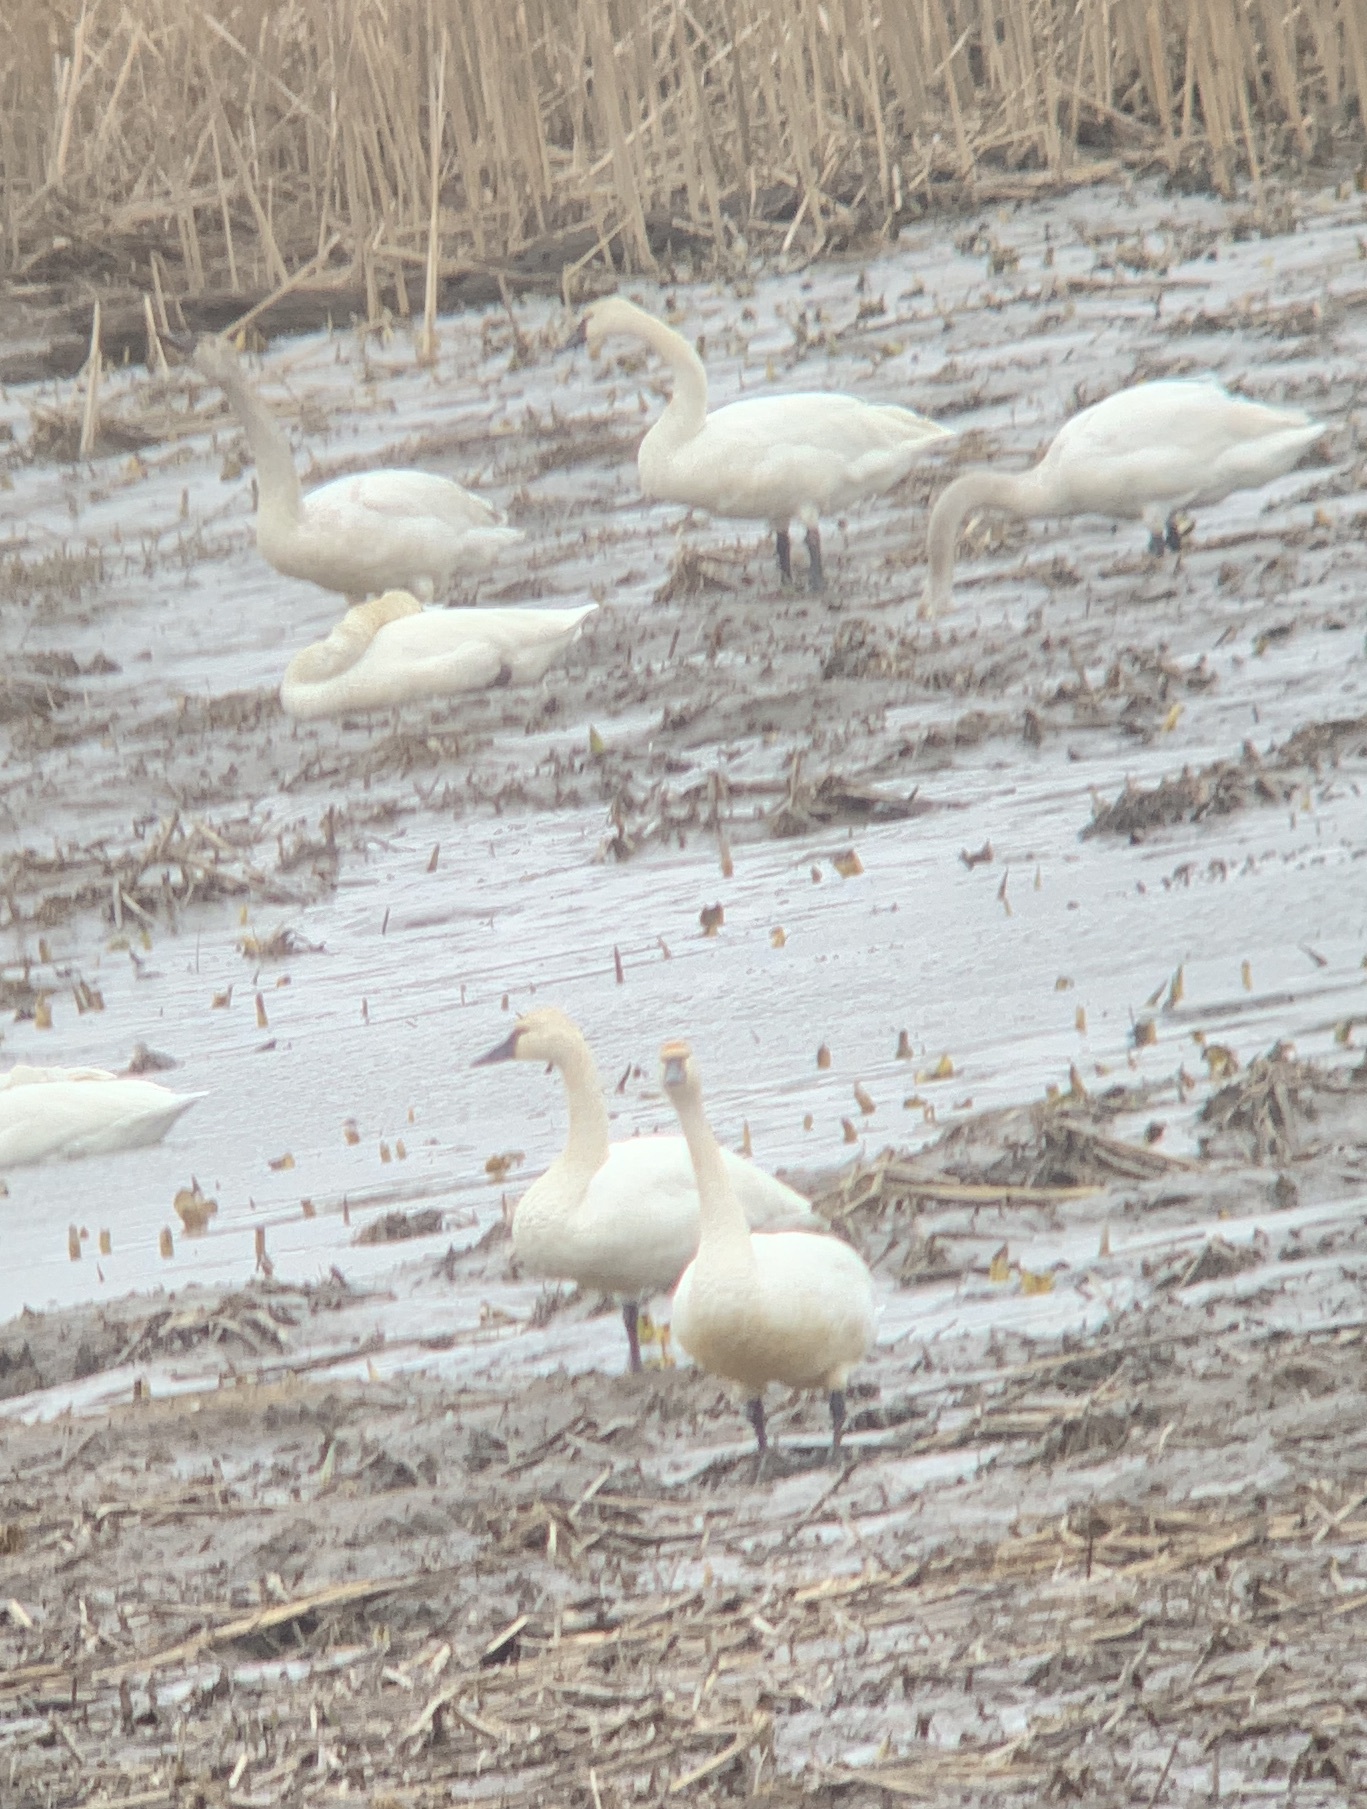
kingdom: Animalia
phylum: Chordata
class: Aves
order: Anseriformes
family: Anatidae
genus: Cygnus
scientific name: Cygnus columbianus
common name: Tundra swan
